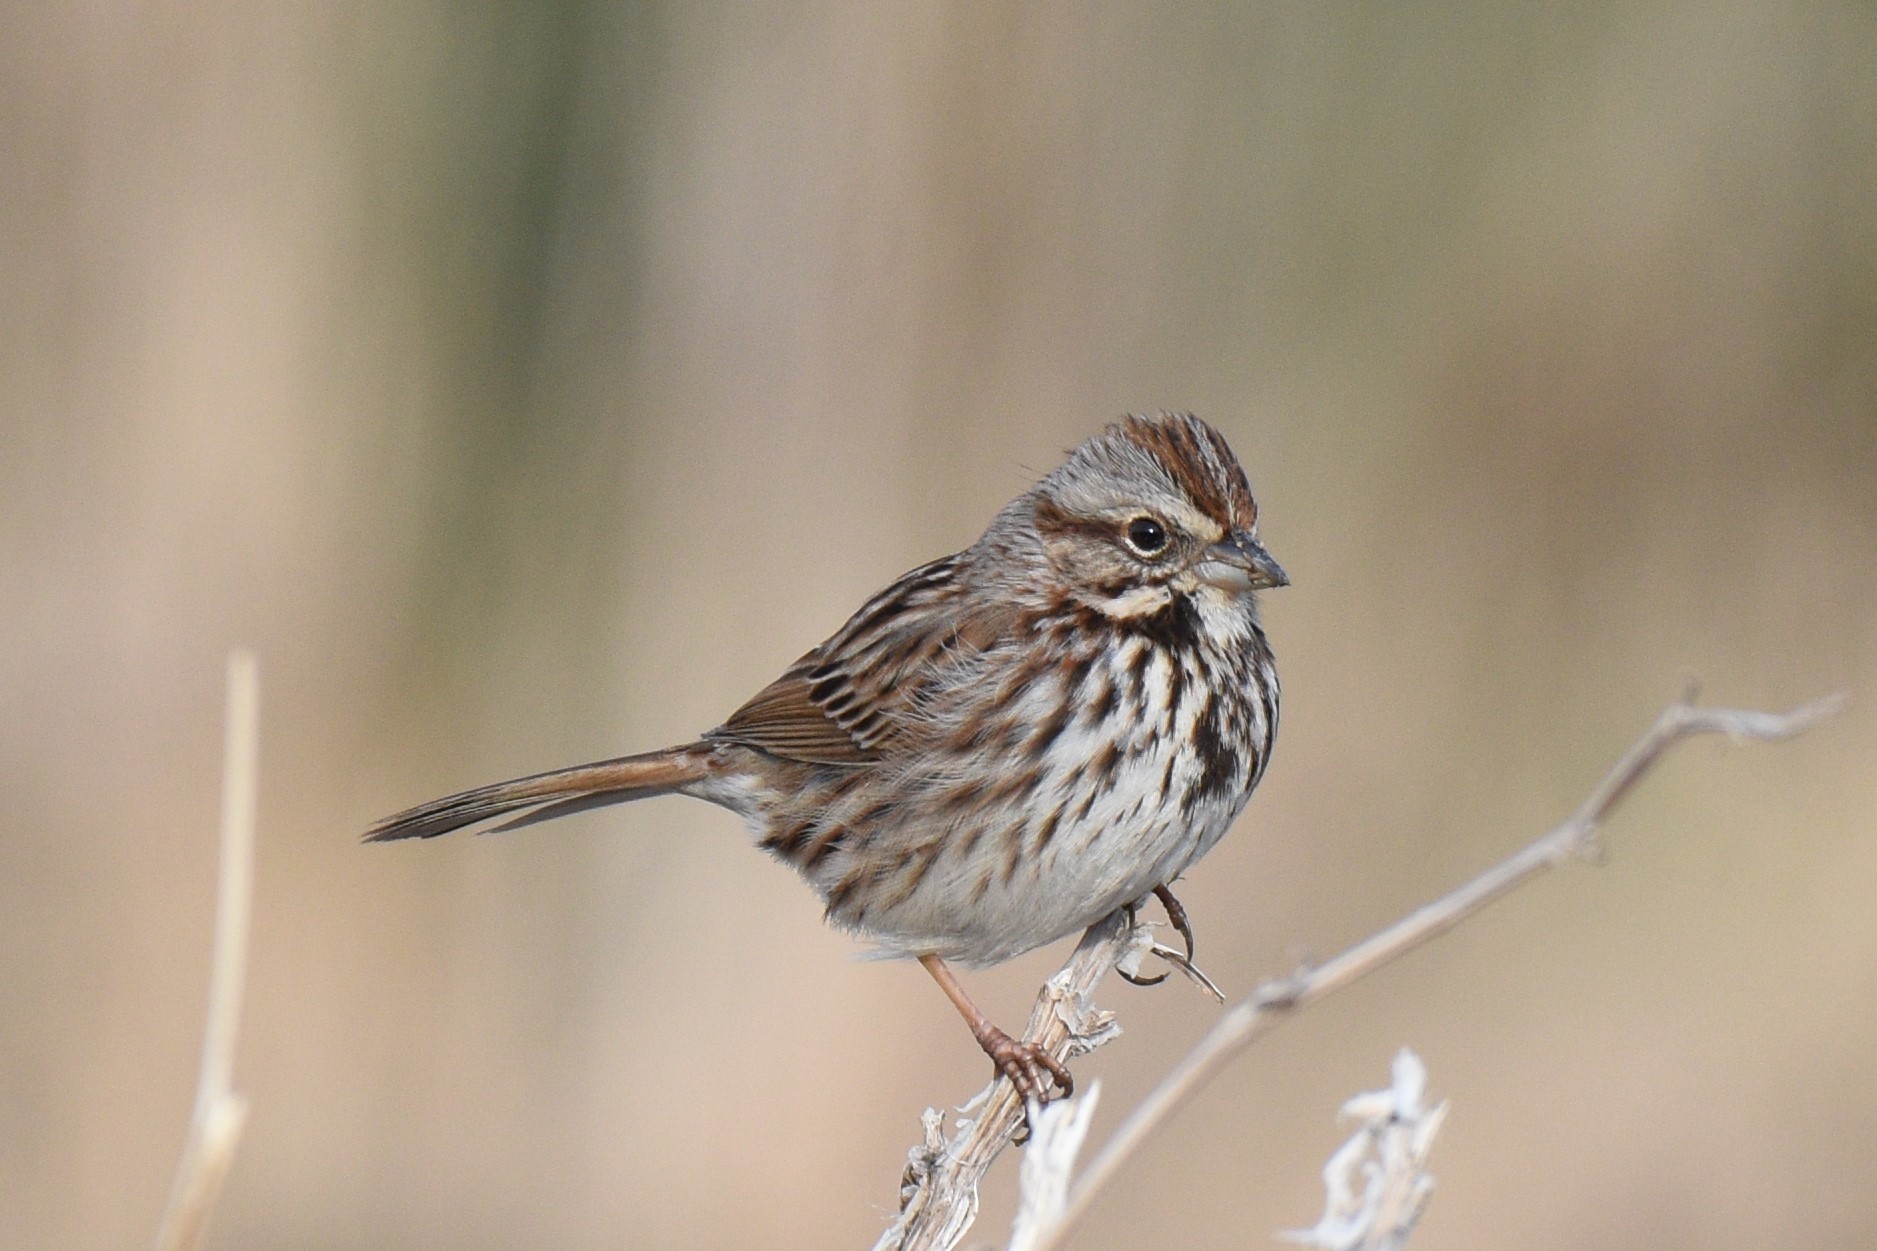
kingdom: Animalia
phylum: Chordata
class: Aves
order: Passeriformes
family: Passerellidae
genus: Melospiza
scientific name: Melospiza melodia
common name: Song sparrow
